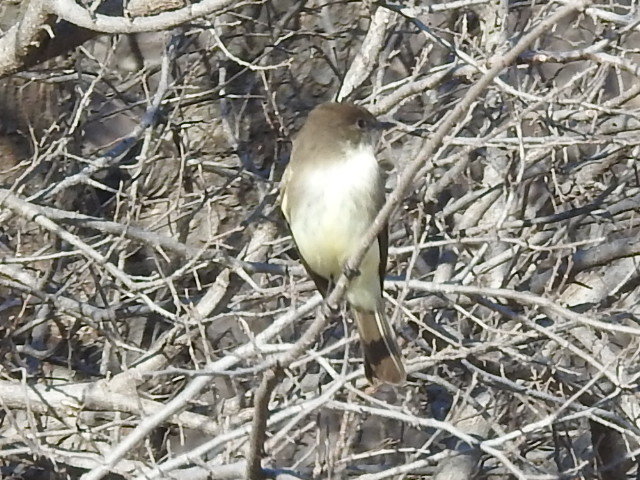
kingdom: Animalia
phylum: Chordata
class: Aves
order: Passeriformes
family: Tyrannidae
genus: Sayornis
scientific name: Sayornis phoebe
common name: Eastern phoebe
